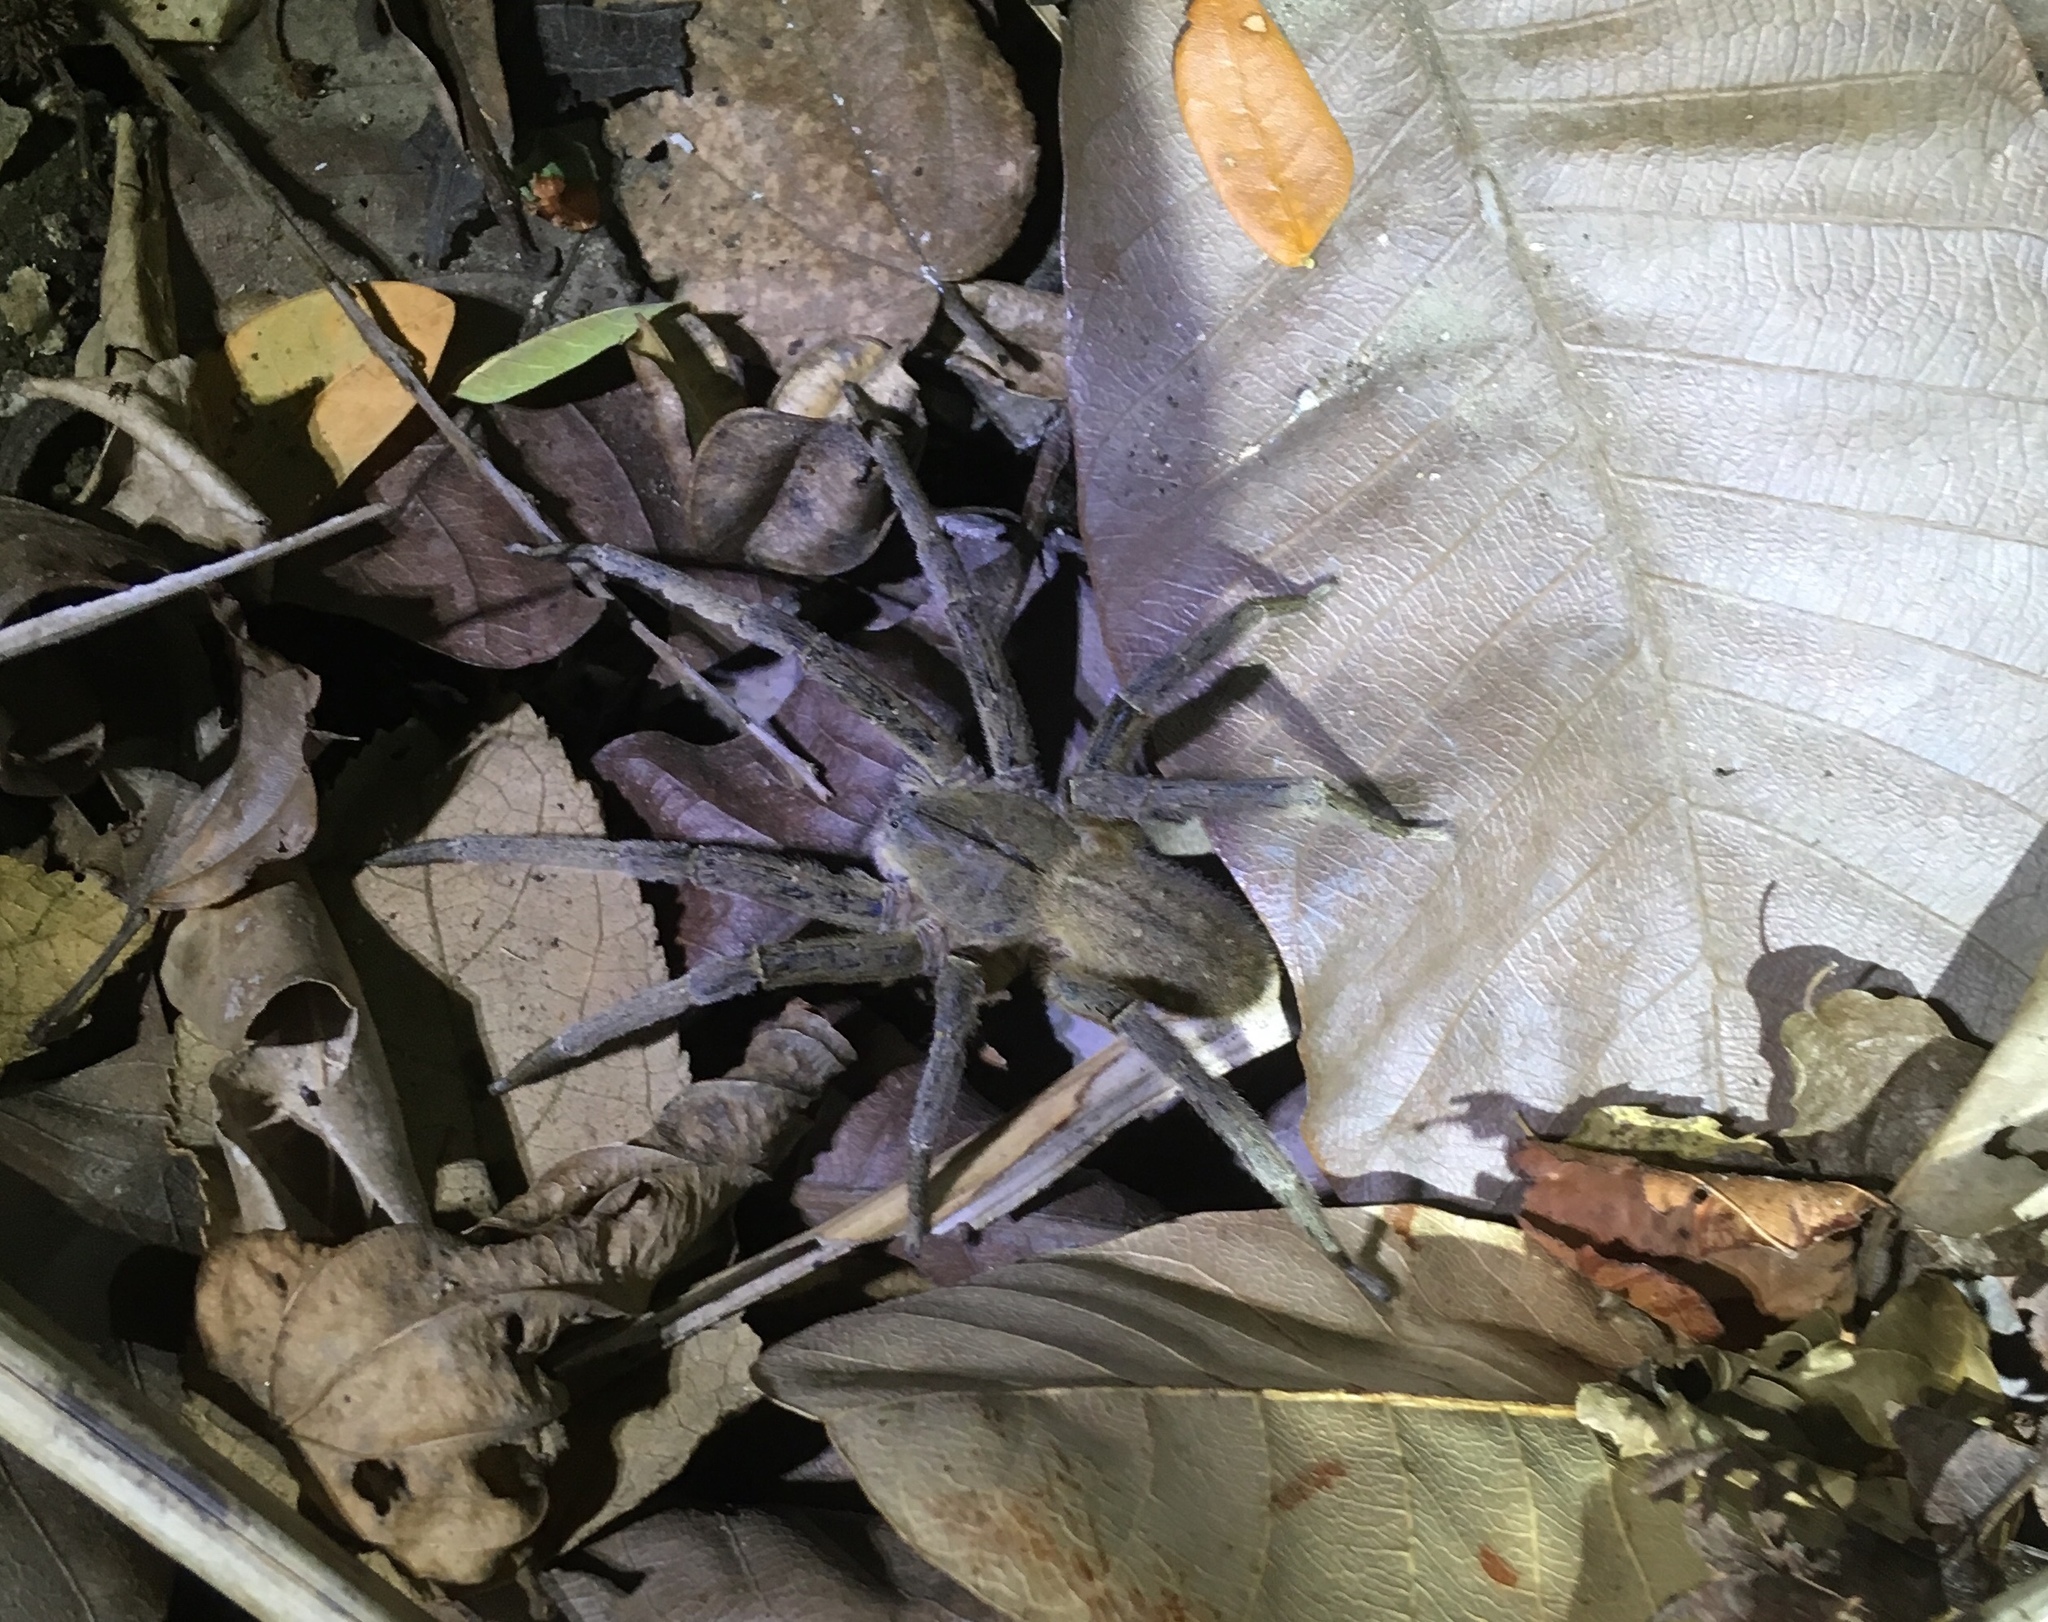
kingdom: Animalia
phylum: Arthropoda
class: Arachnida
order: Araneae
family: Ctenidae
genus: Phoneutria
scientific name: Phoneutria depilata
